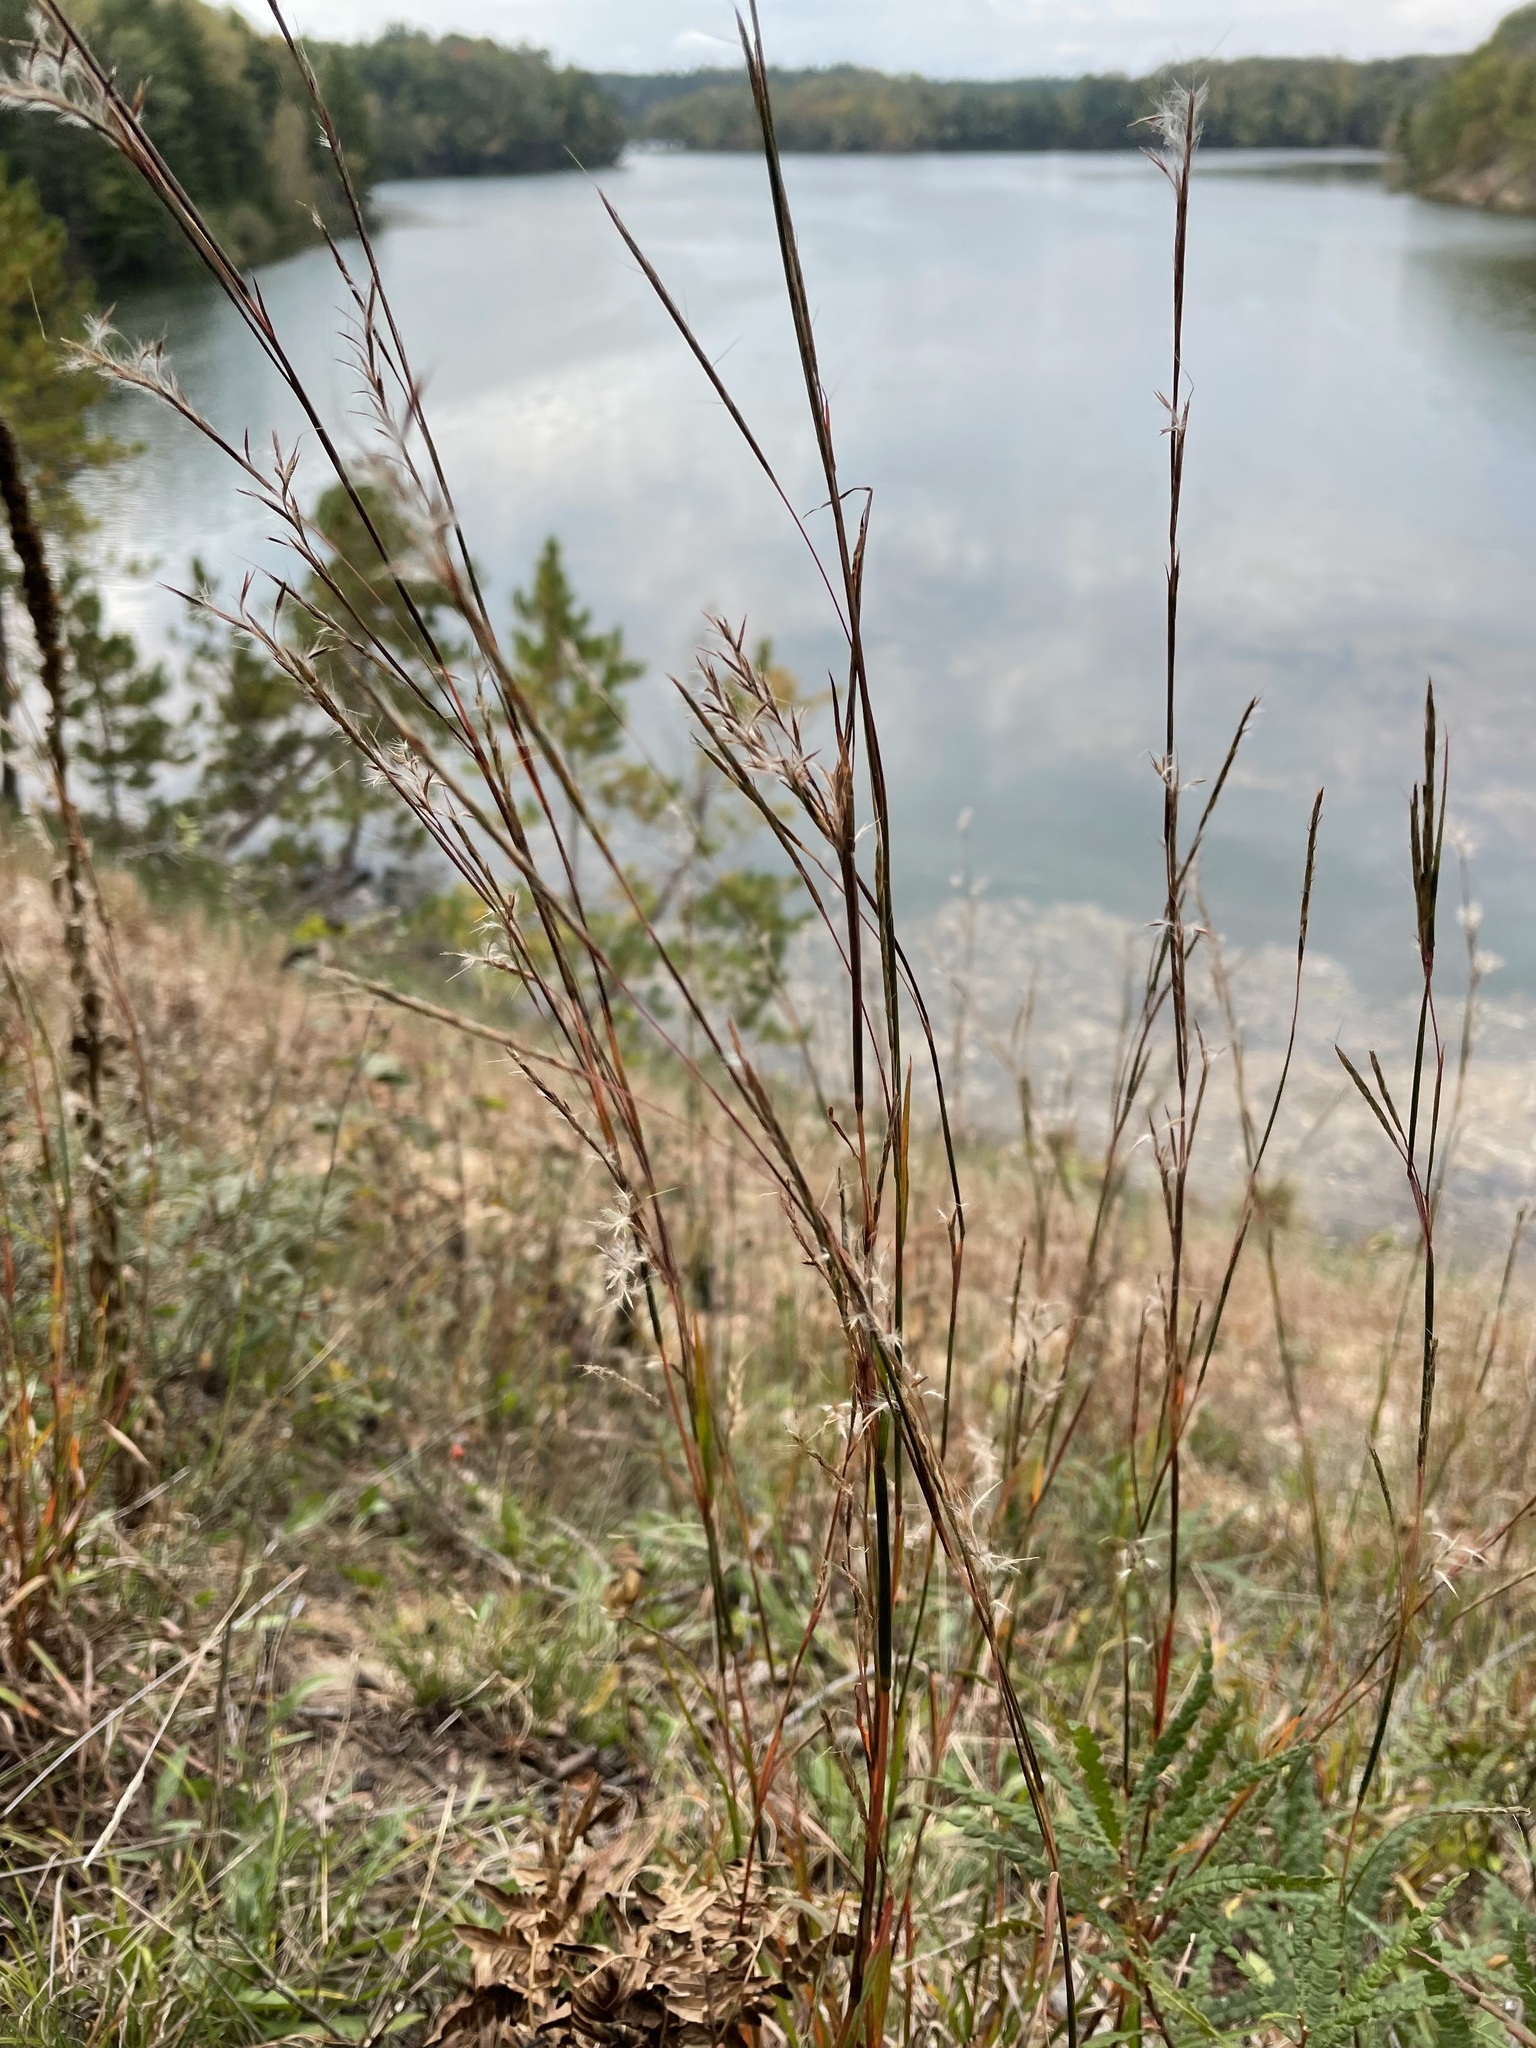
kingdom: Plantae
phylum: Tracheophyta
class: Liliopsida
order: Poales
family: Poaceae
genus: Schizachyrium
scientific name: Schizachyrium scoparium
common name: Little bluestem
